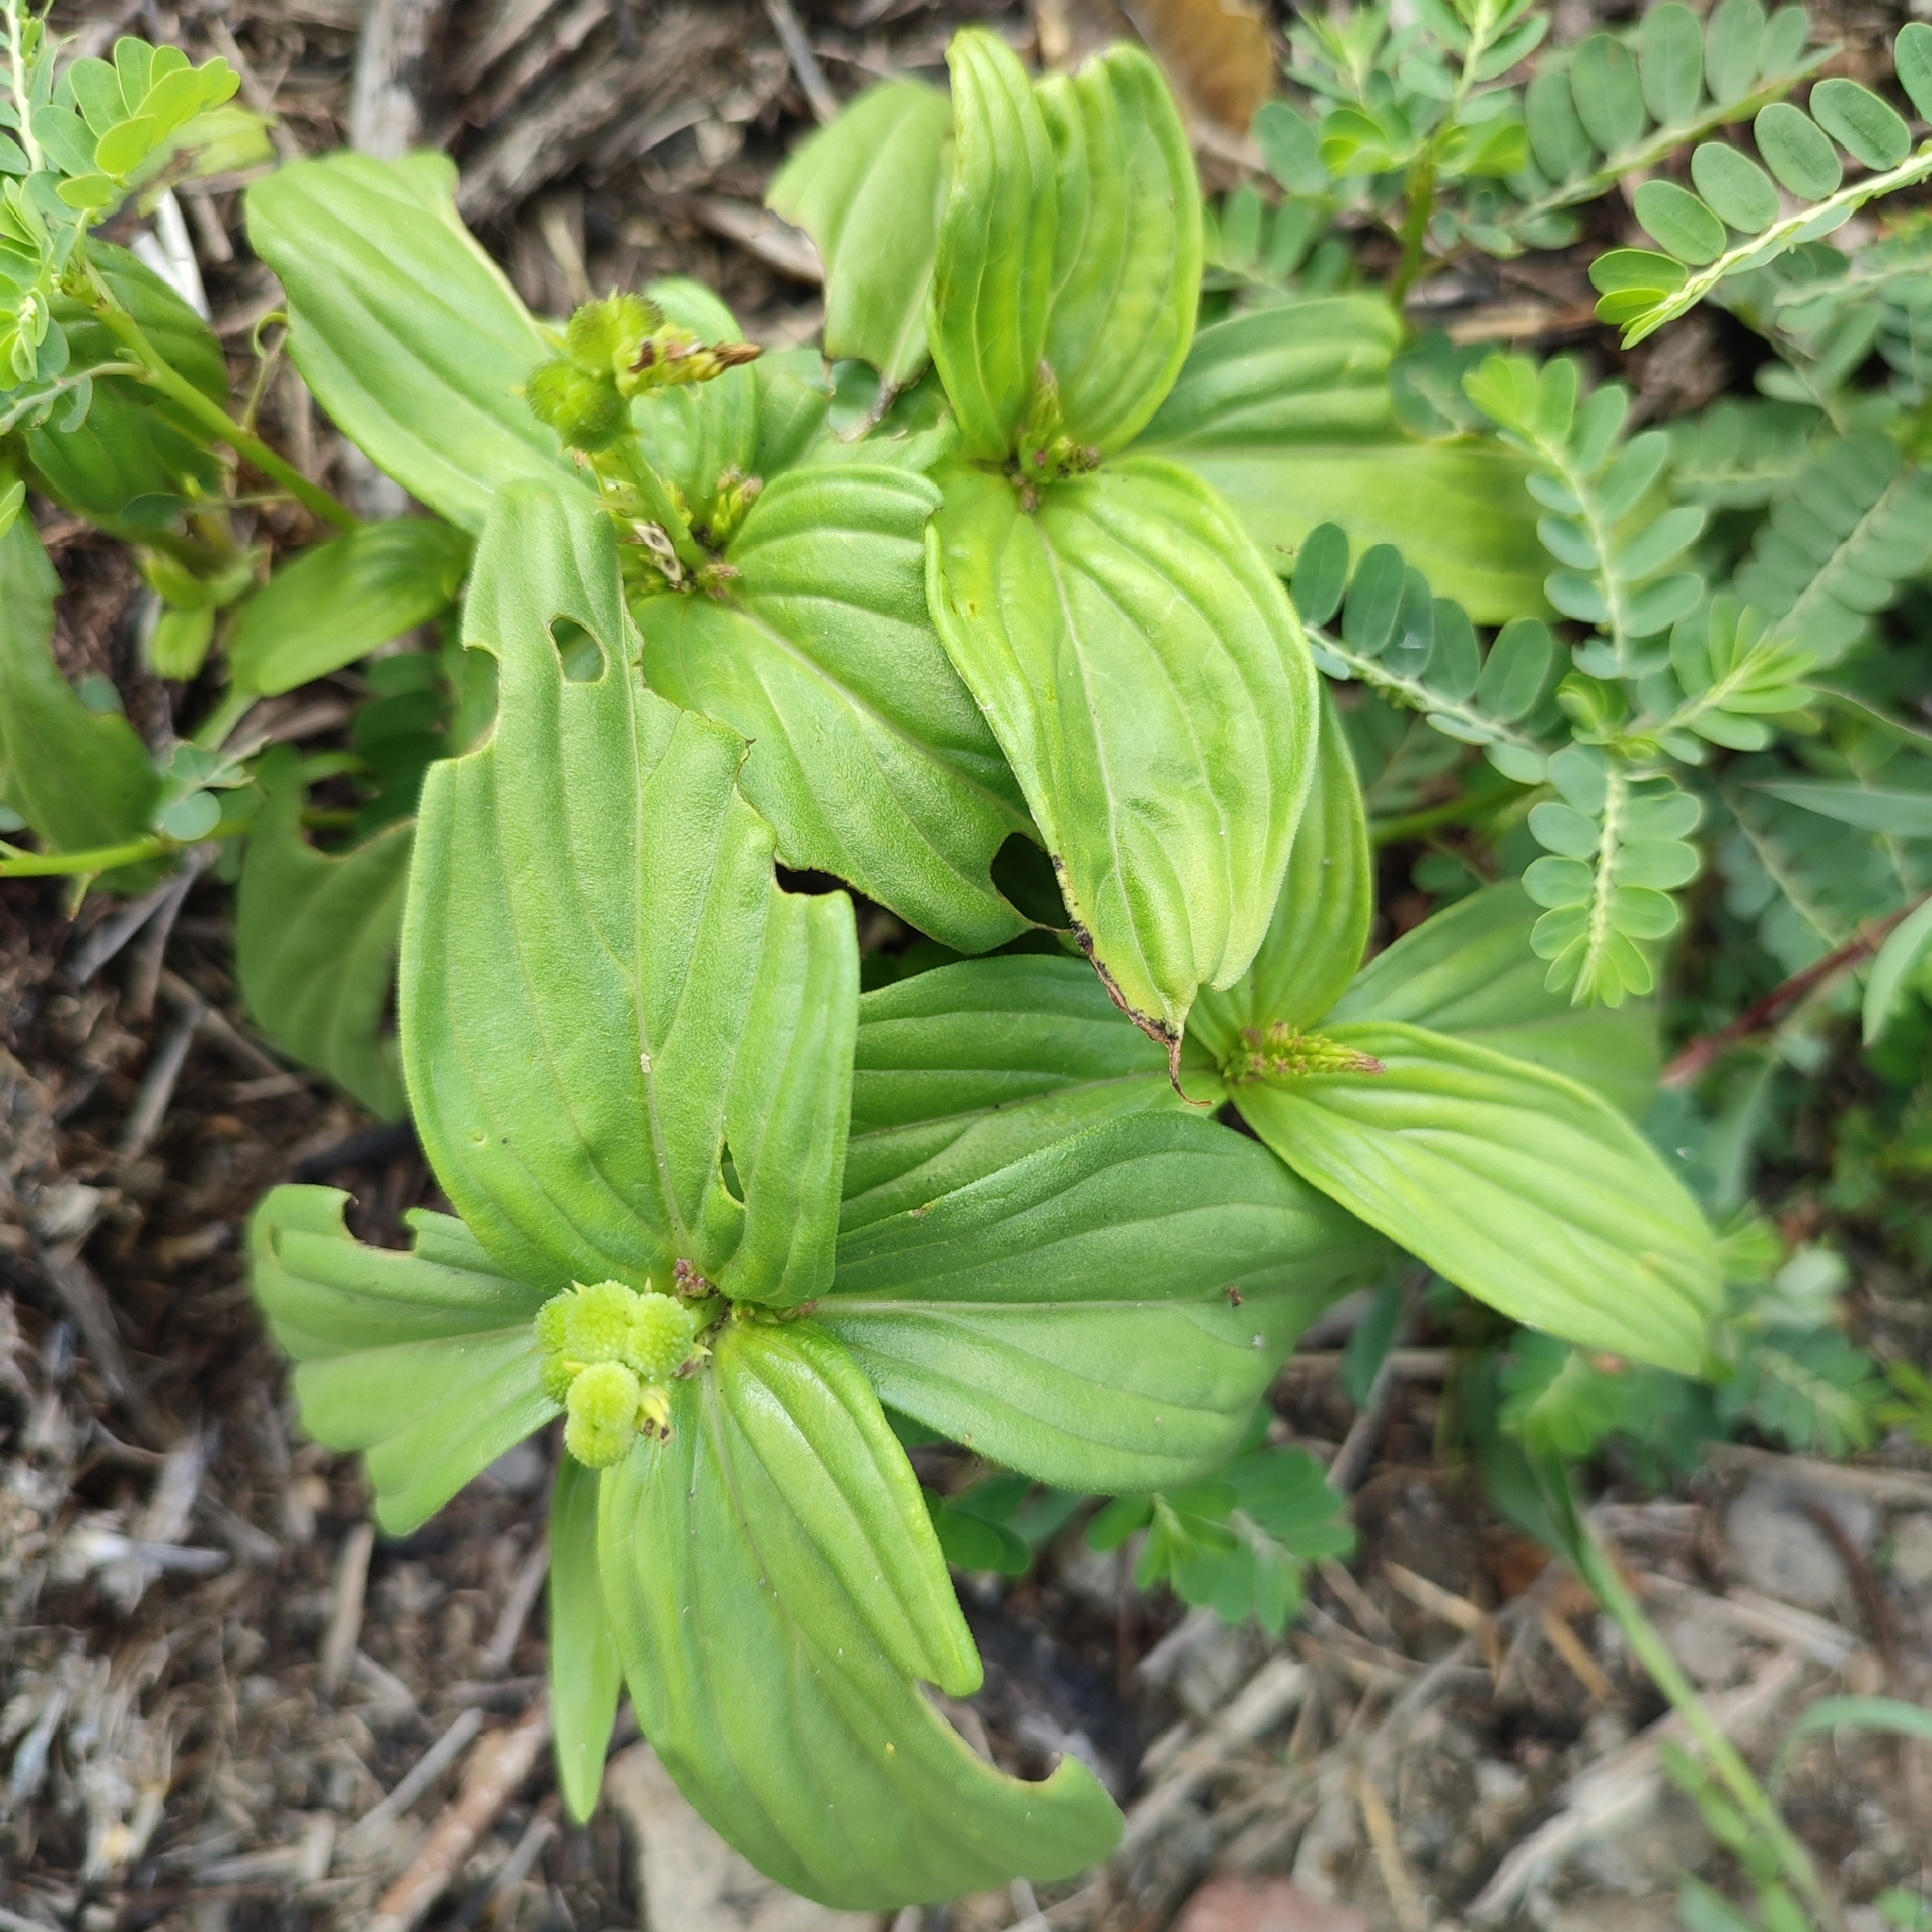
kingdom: Plantae
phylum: Tracheophyta
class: Magnoliopsida
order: Gentianales
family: Loganiaceae
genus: Spigelia
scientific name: Spigelia anthelmia
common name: West indian-pink
